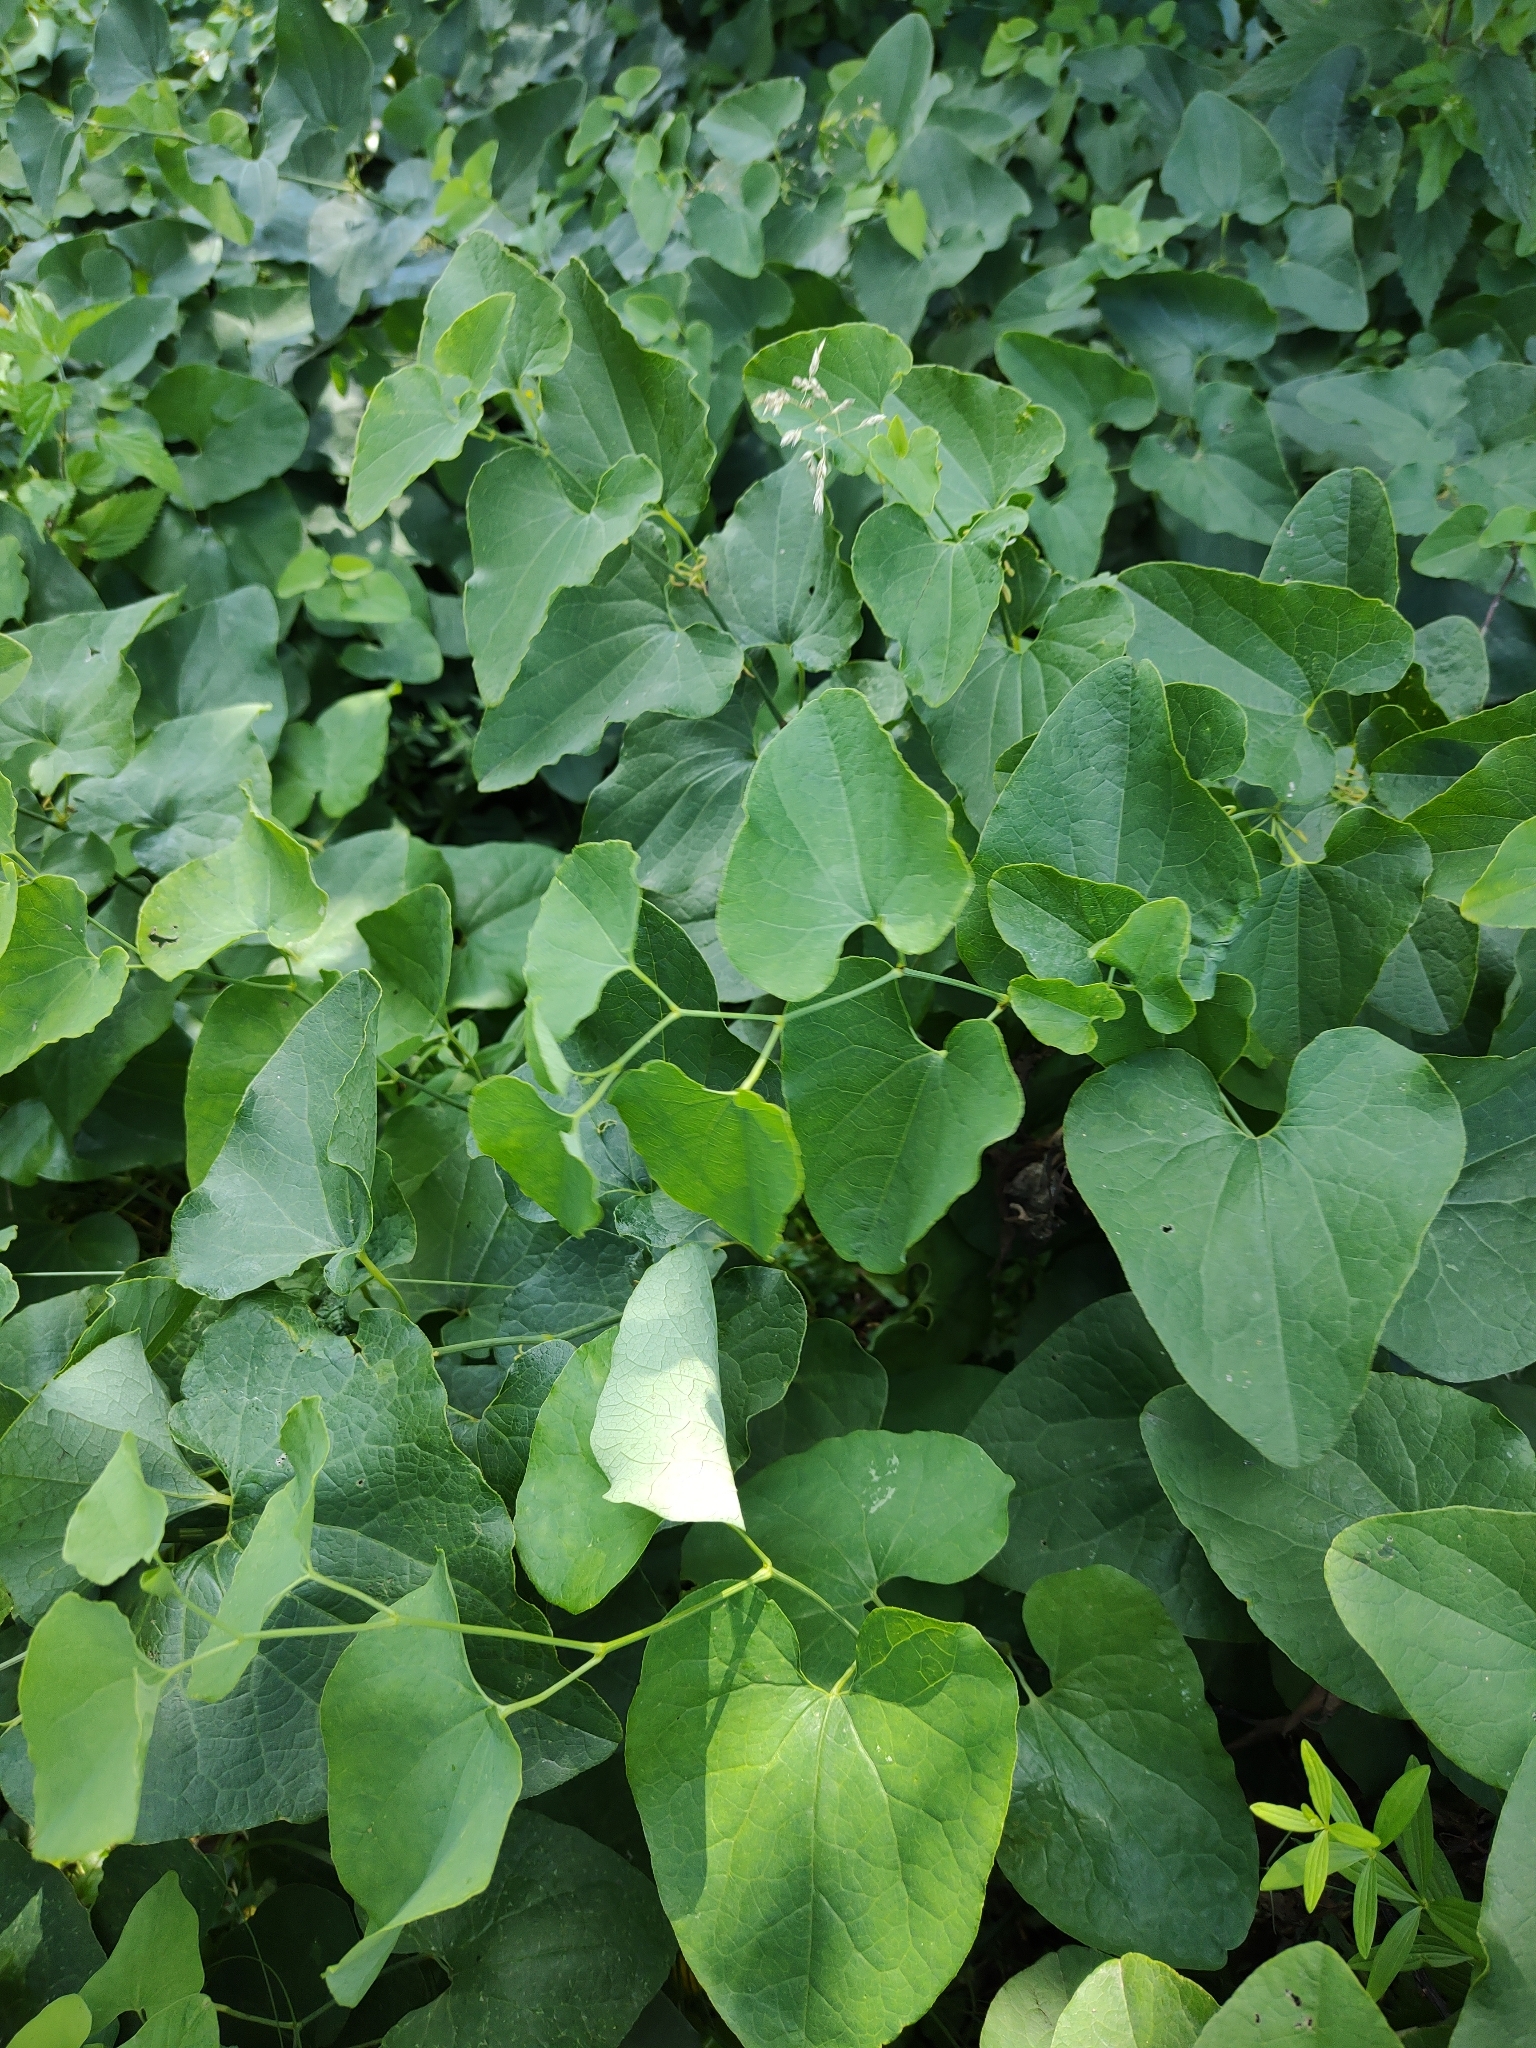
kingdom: Plantae
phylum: Tracheophyta
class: Magnoliopsida
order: Piperales
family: Aristolochiaceae
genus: Aristolochia
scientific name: Aristolochia clematitis
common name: Birthwort
